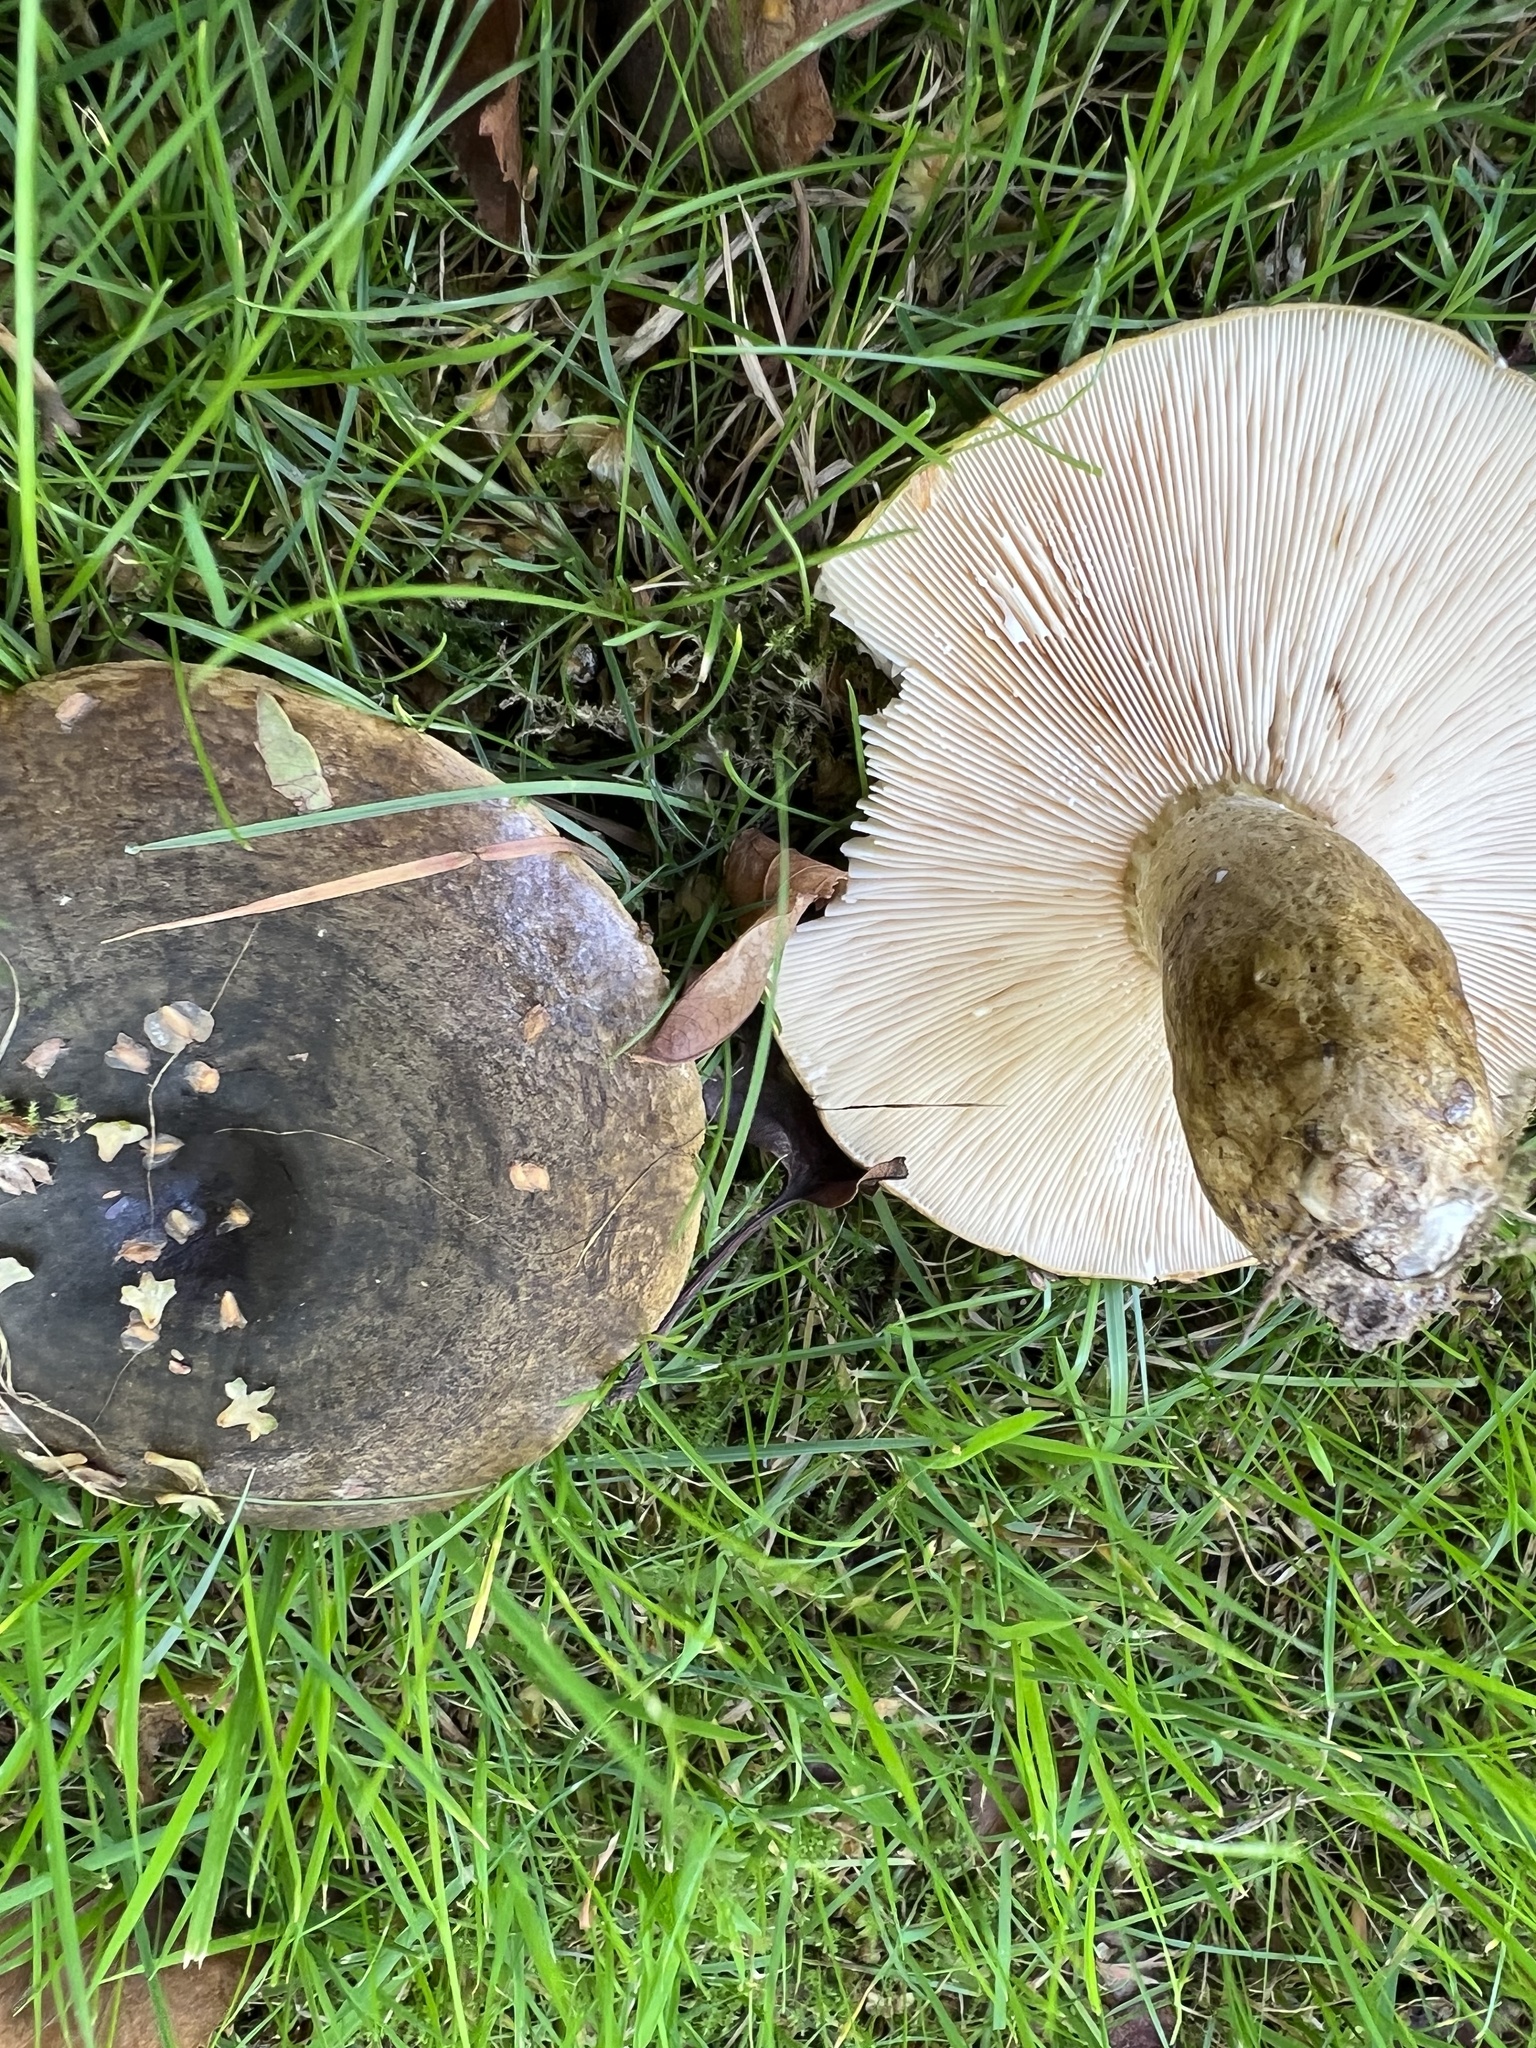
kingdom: Fungi
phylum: Basidiomycota
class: Agaricomycetes
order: Russulales
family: Russulaceae
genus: Lactarius
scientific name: Lactarius turpis
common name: Ugly milk-cap
